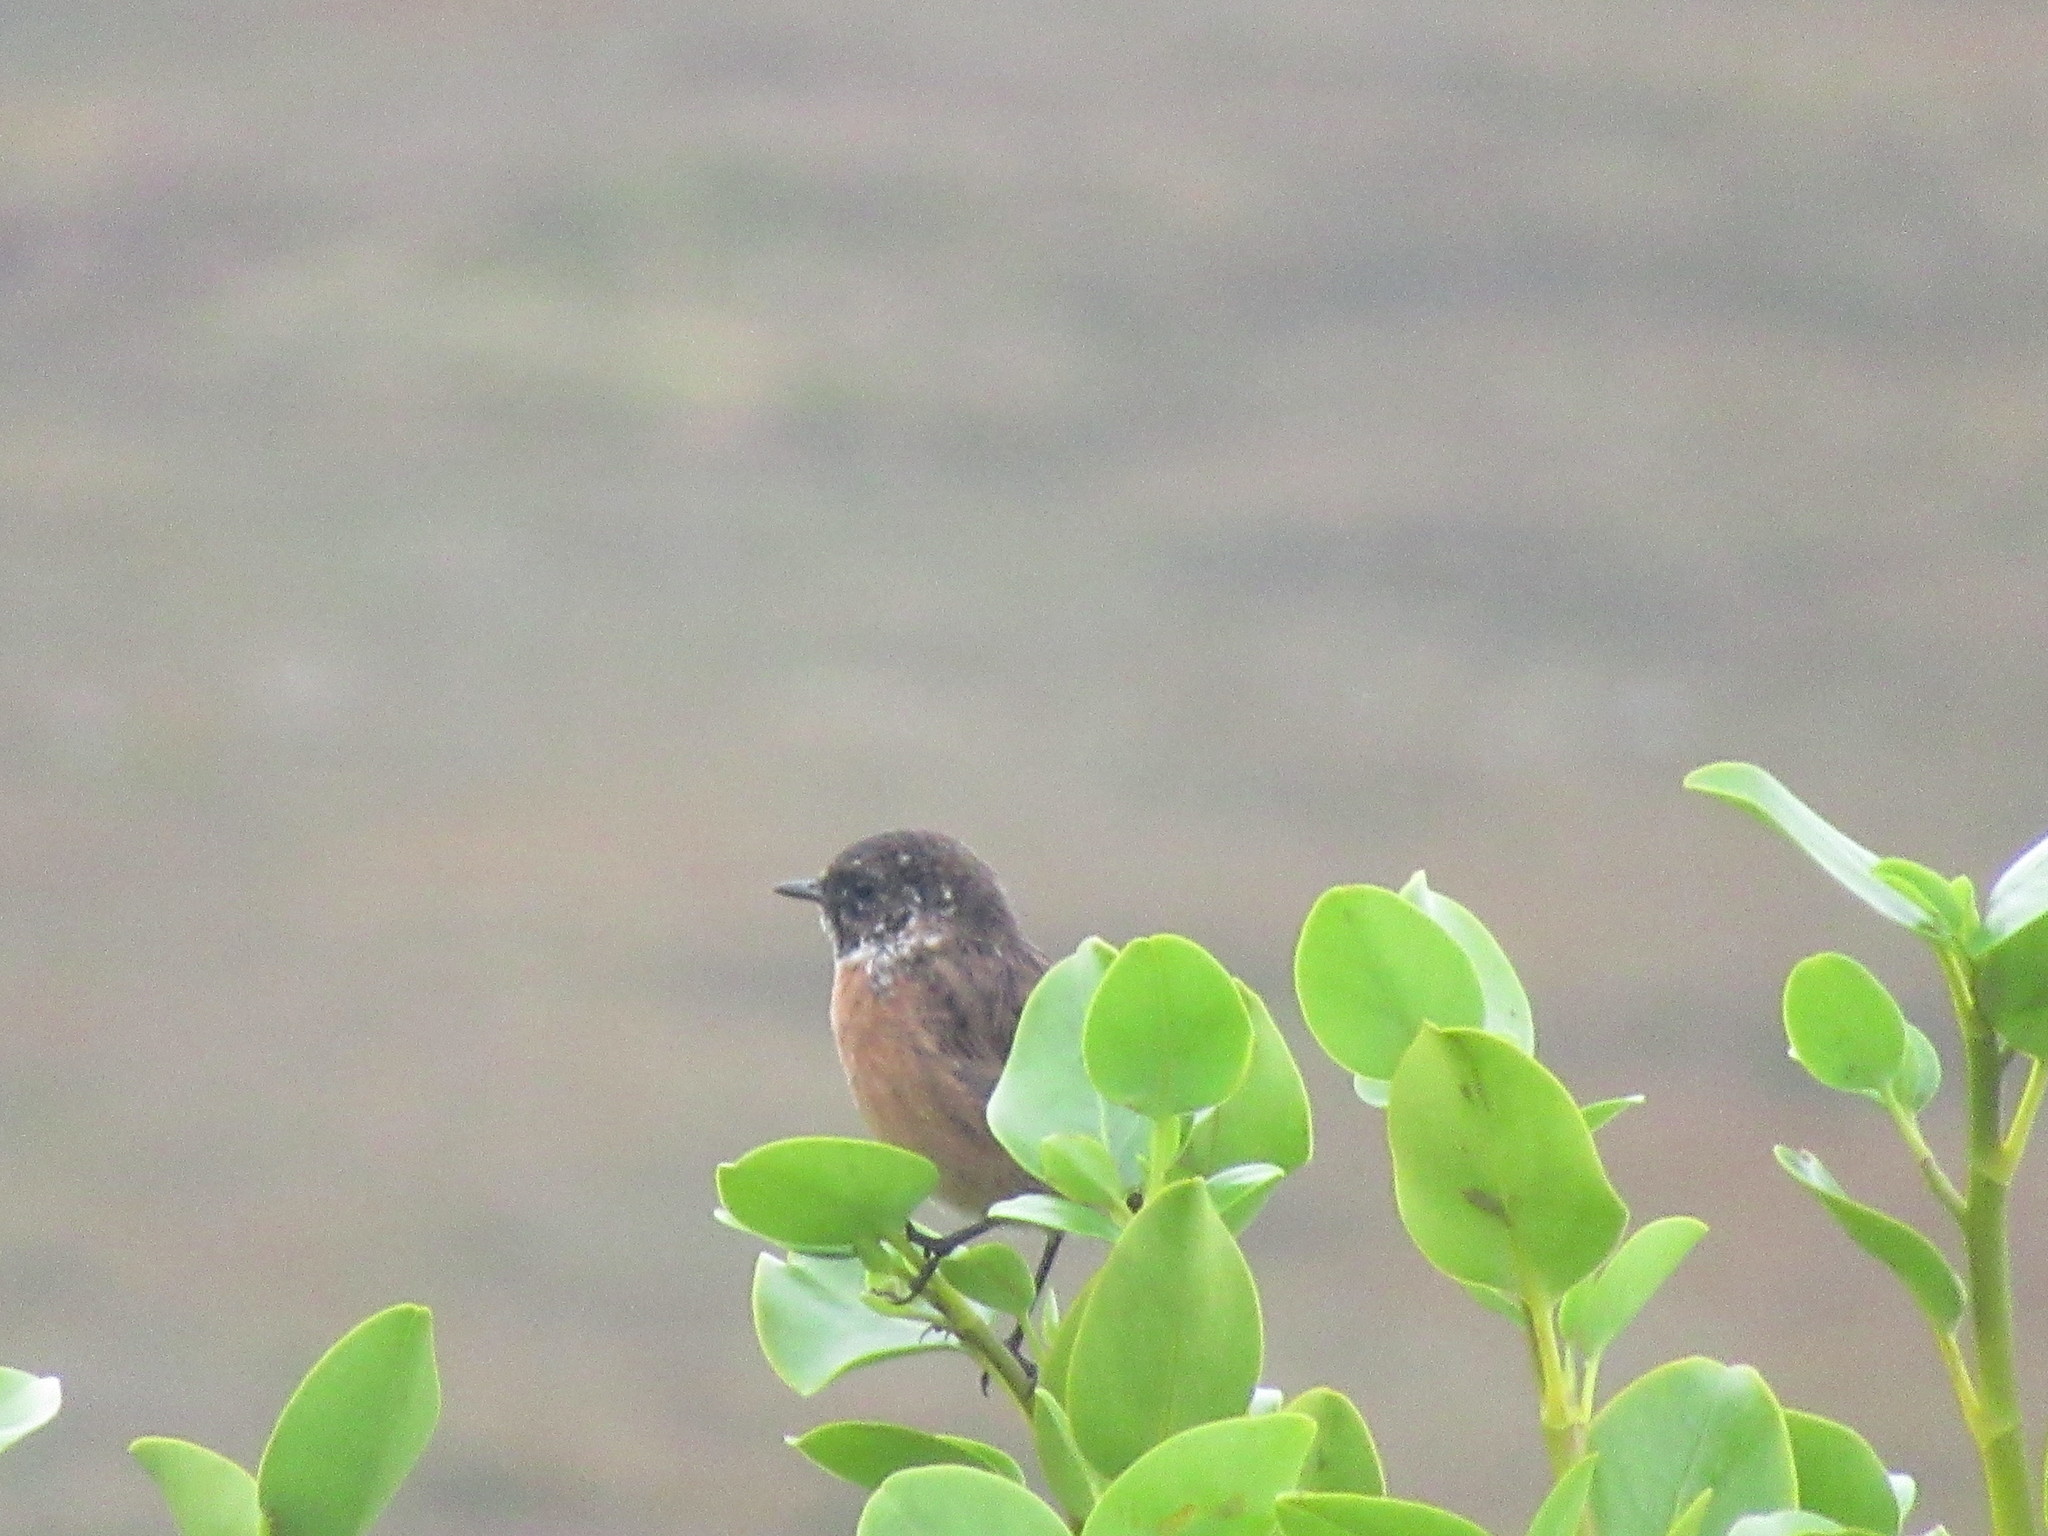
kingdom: Animalia
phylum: Chordata
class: Aves
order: Passeriformes
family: Muscicapidae
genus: Saxicola
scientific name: Saxicola rubicola
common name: European stonechat
